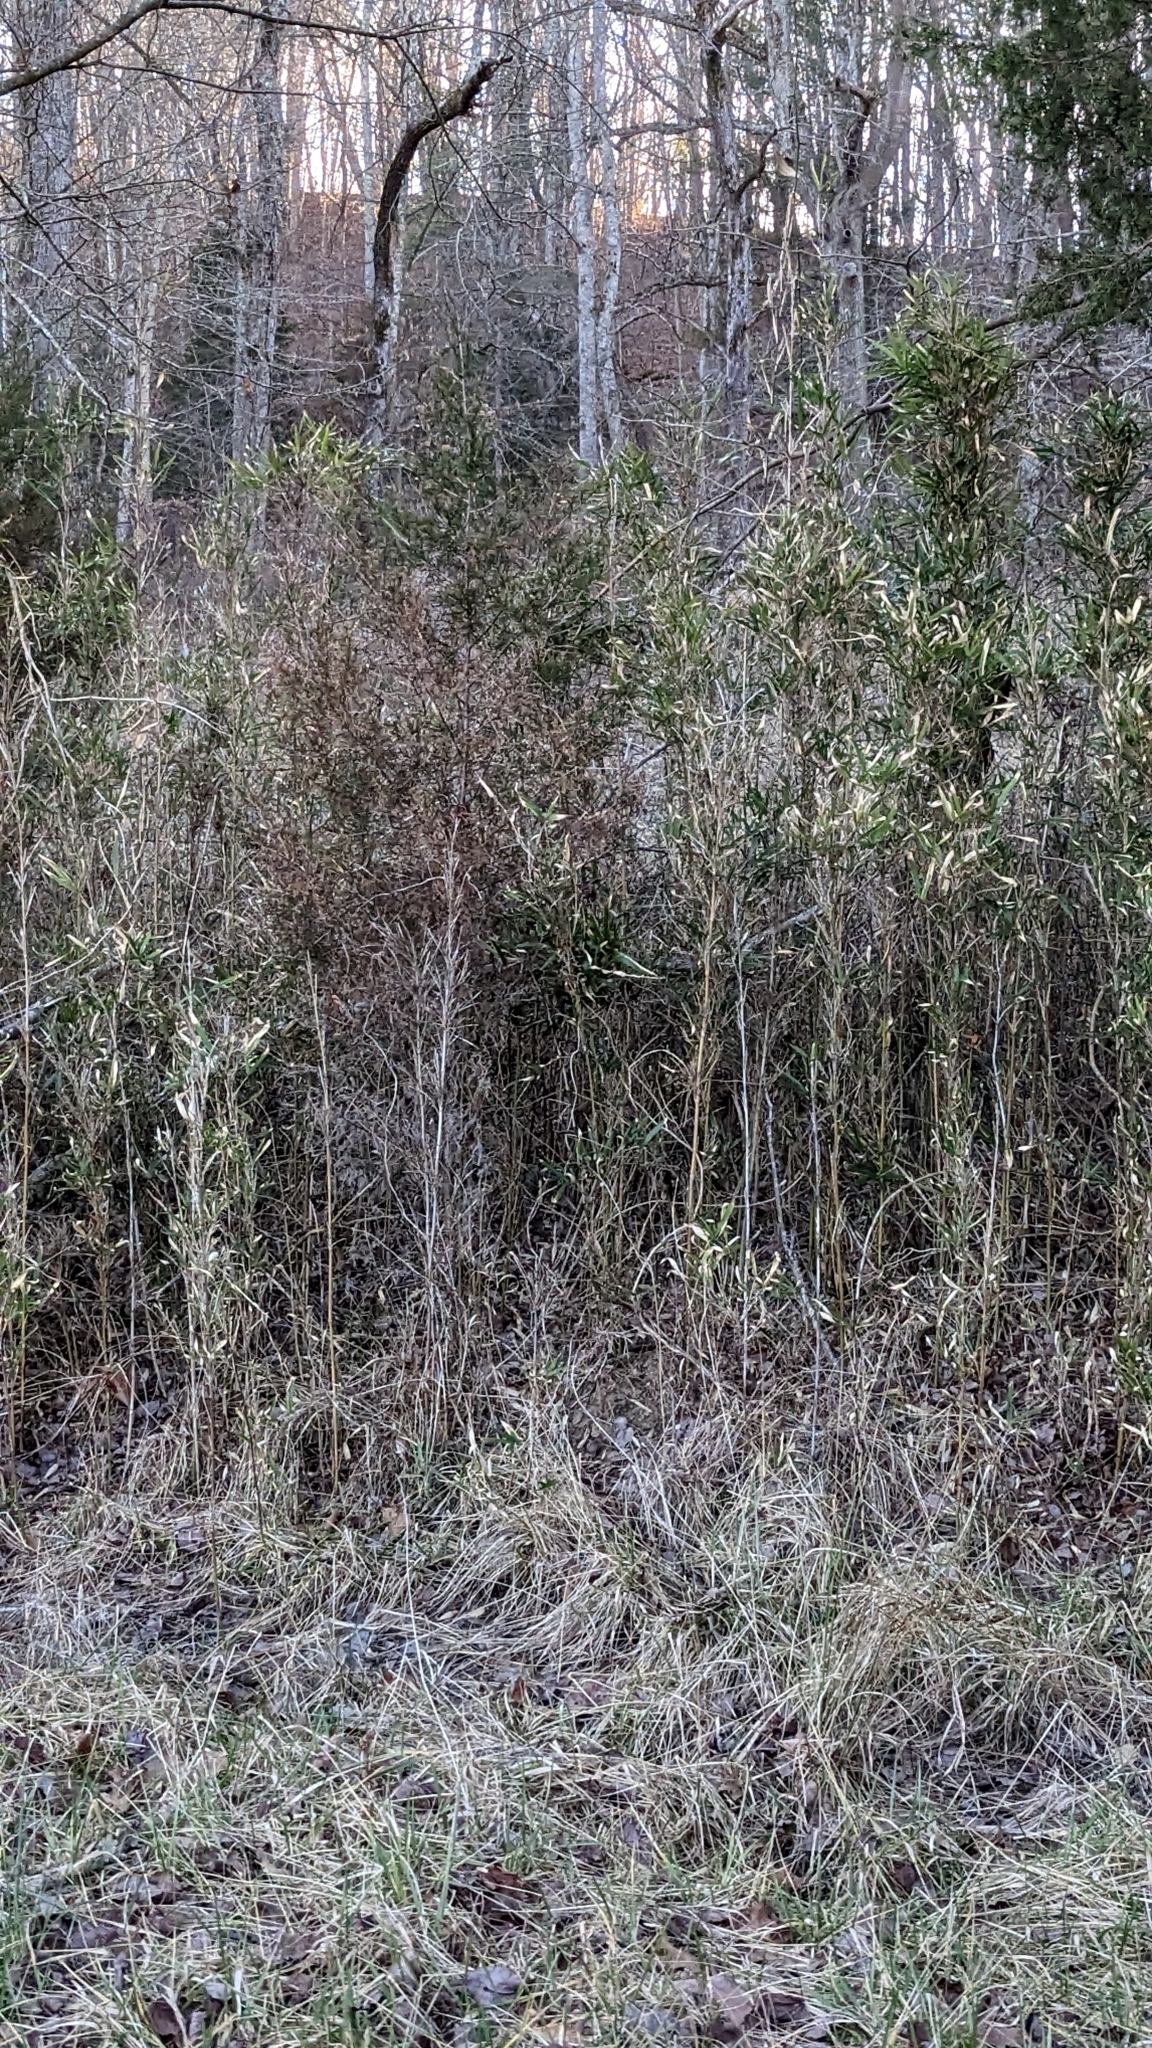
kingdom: Plantae
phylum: Tracheophyta
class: Liliopsida
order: Poales
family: Poaceae
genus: Arundinaria
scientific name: Arundinaria gigantea
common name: Giant cane
